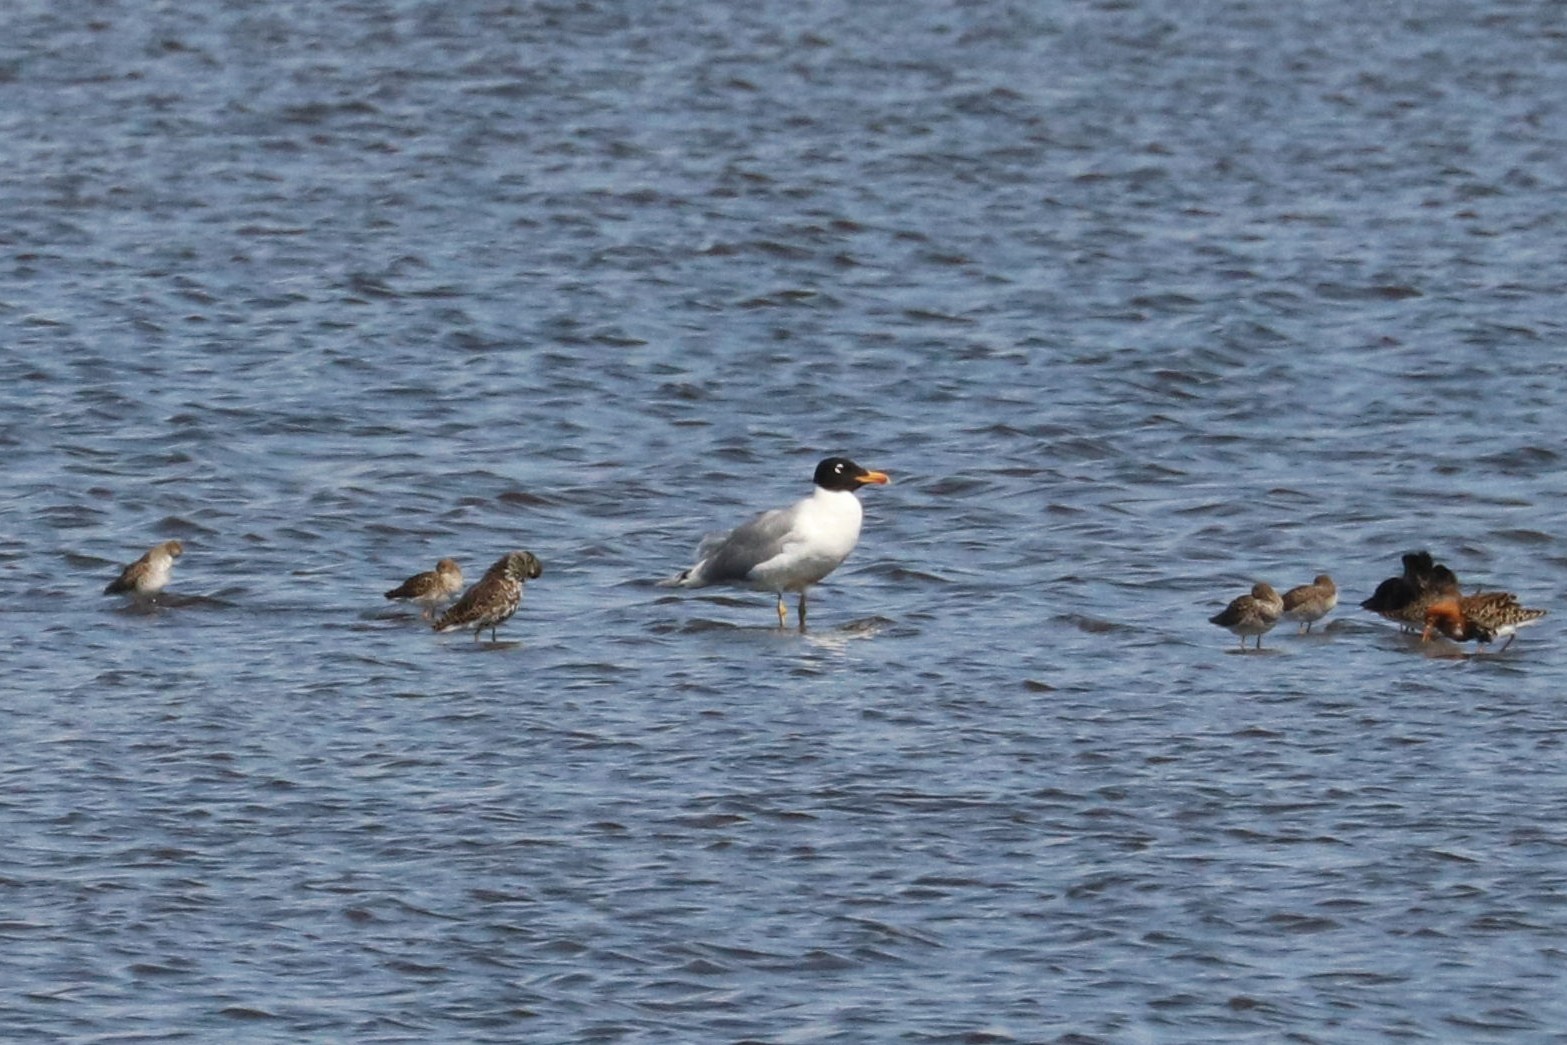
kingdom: Animalia
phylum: Chordata
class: Aves
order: Charadriiformes
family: Laridae
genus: Ichthyaetus
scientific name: Ichthyaetus ichthyaetus
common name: Pallas's gull
